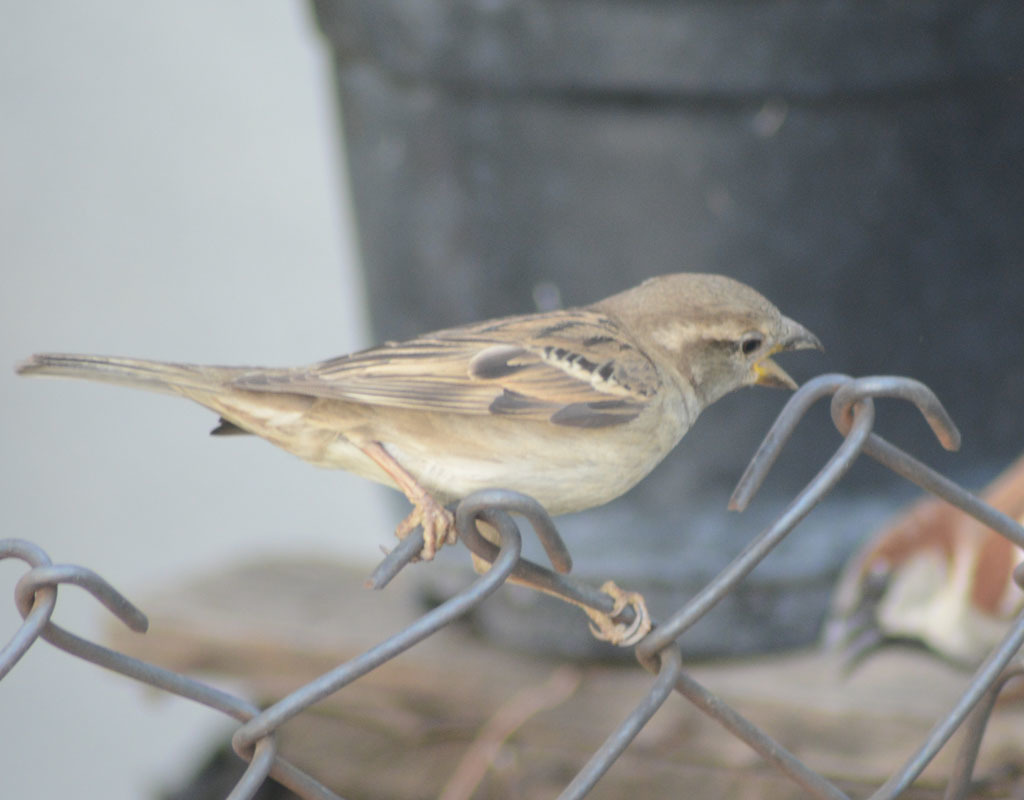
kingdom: Animalia
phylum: Chordata
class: Aves
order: Passeriformes
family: Passeridae
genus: Passer
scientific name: Passer domesticus
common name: House sparrow
